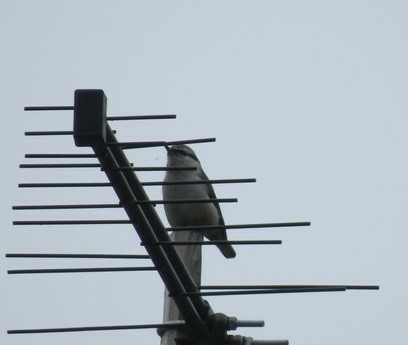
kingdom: Animalia
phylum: Chordata
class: Aves
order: Passeriformes
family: Sittidae
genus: Sitta
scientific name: Sitta europaea
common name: Eurasian nuthatch
